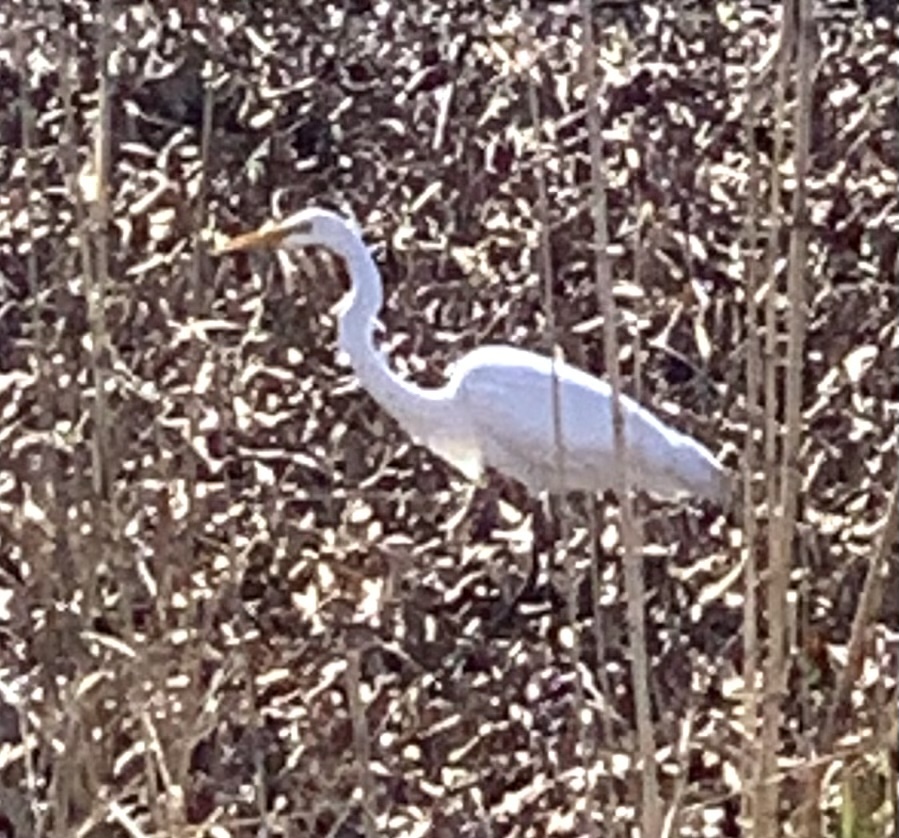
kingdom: Animalia
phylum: Chordata
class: Aves
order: Pelecaniformes
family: Ardeidae
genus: Ardea
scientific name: Ardea alba
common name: Great egret
